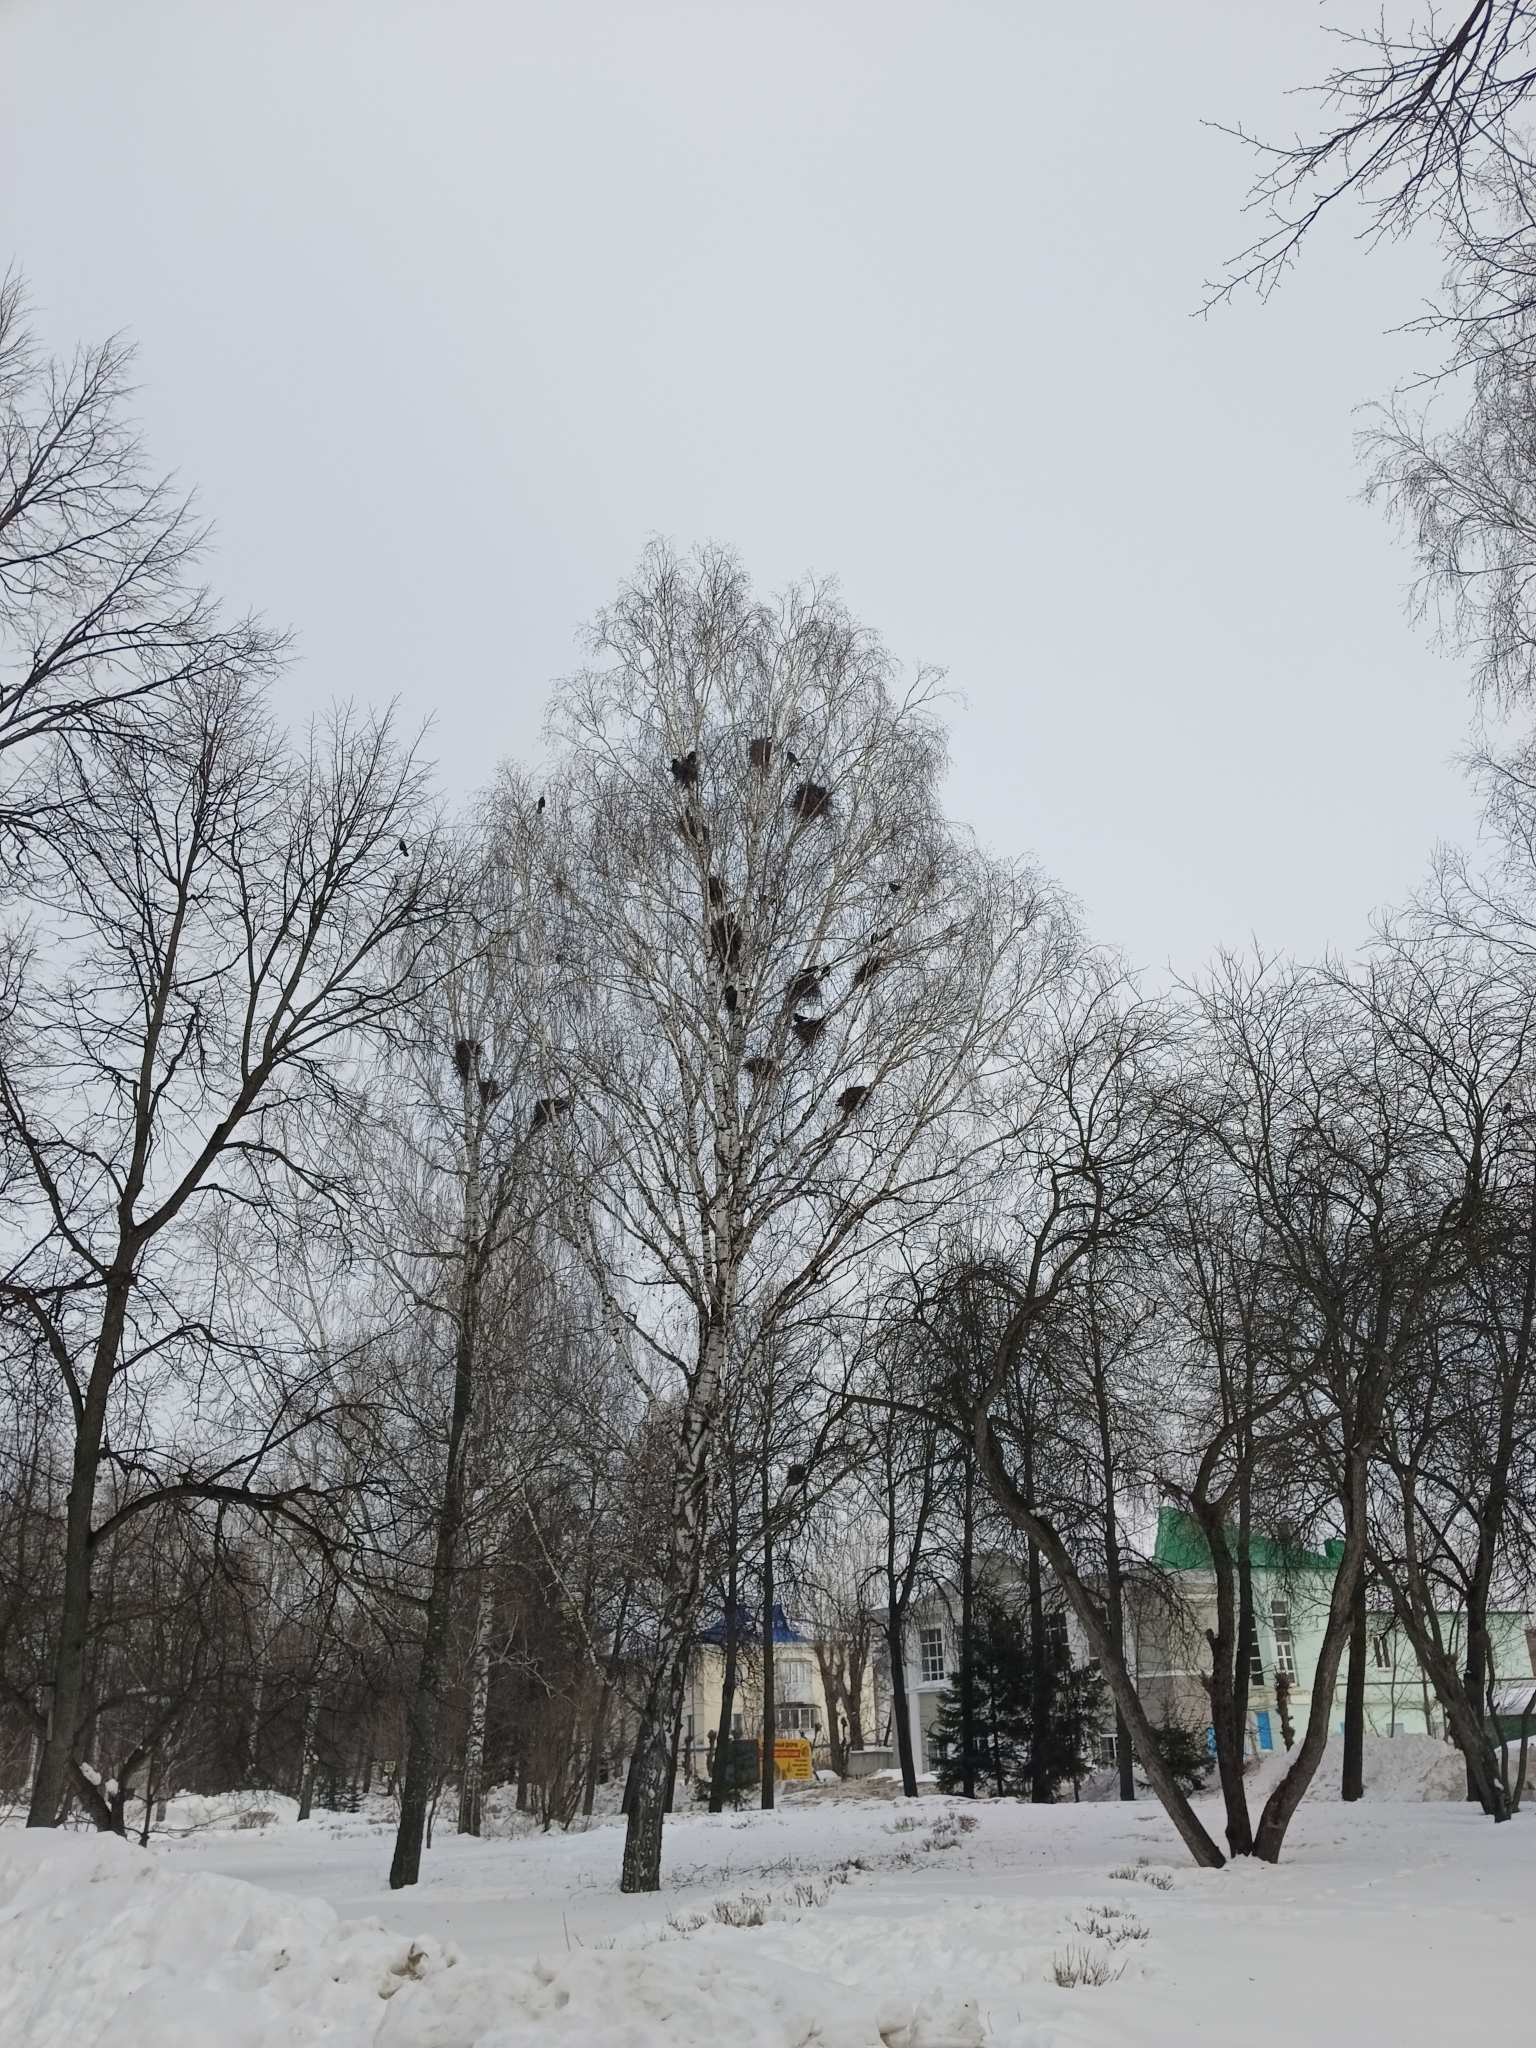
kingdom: Animalia
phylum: Chordata
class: Aves
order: Passeriformes
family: Corvidae
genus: Corvus
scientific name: Corvus frugilegus
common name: Rook
